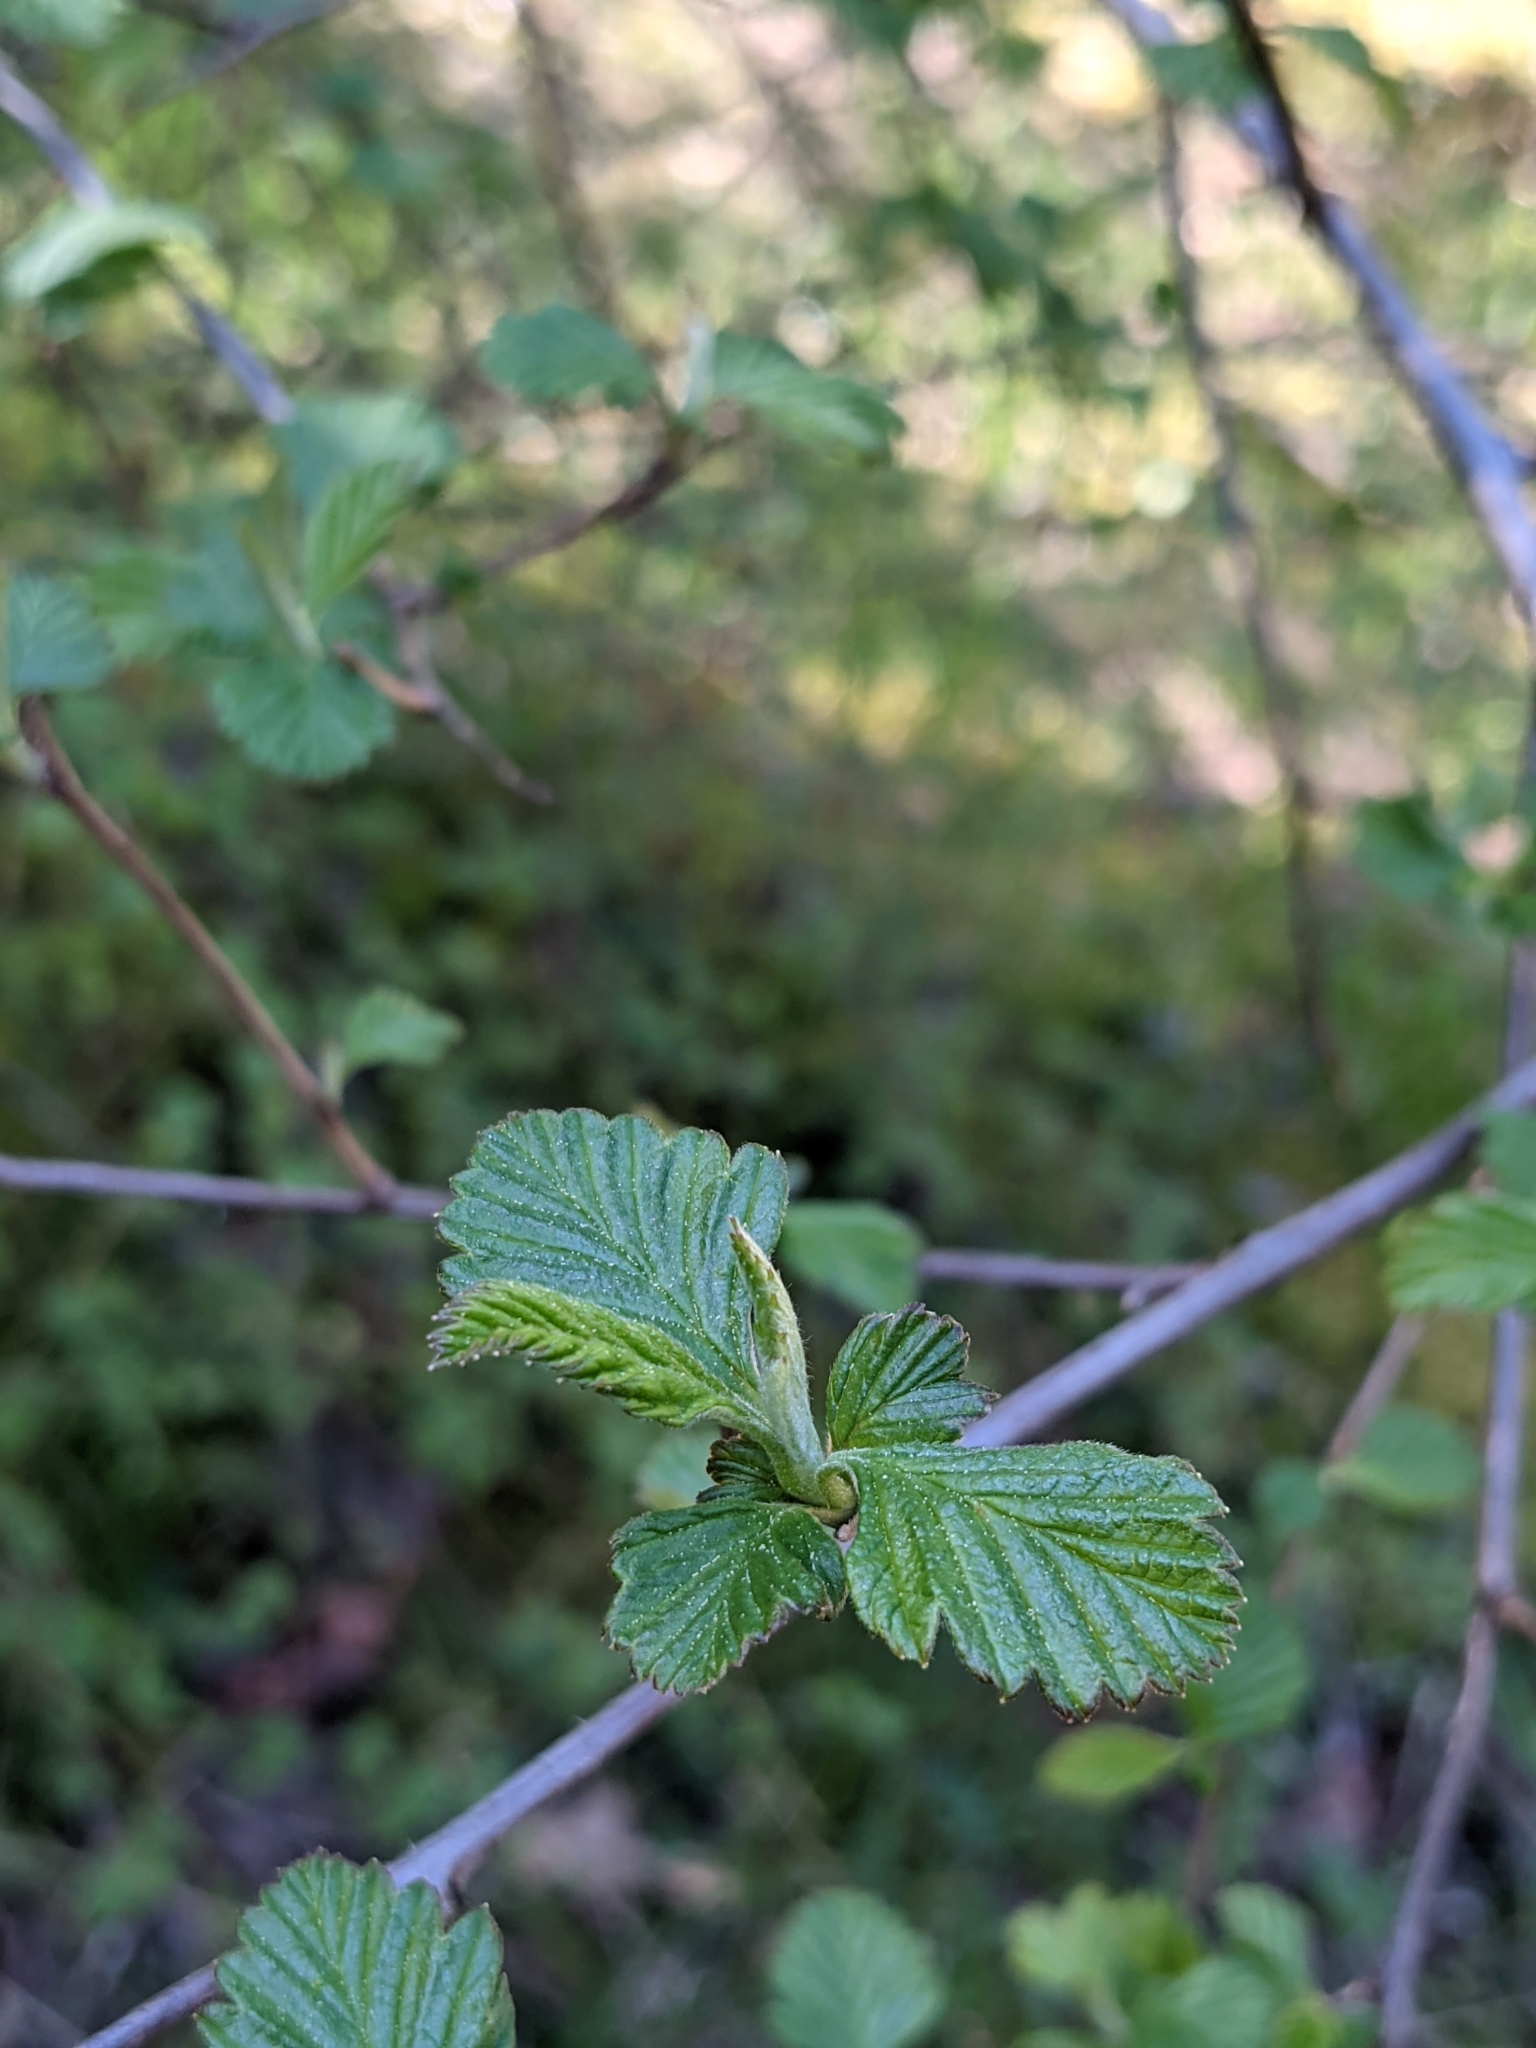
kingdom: Plantae
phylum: Tracheophyta
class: Magnoliopsida
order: Rosales
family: Rosaceae
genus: Holodiscus
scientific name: Holodiscus discolor
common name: Oceanspray
